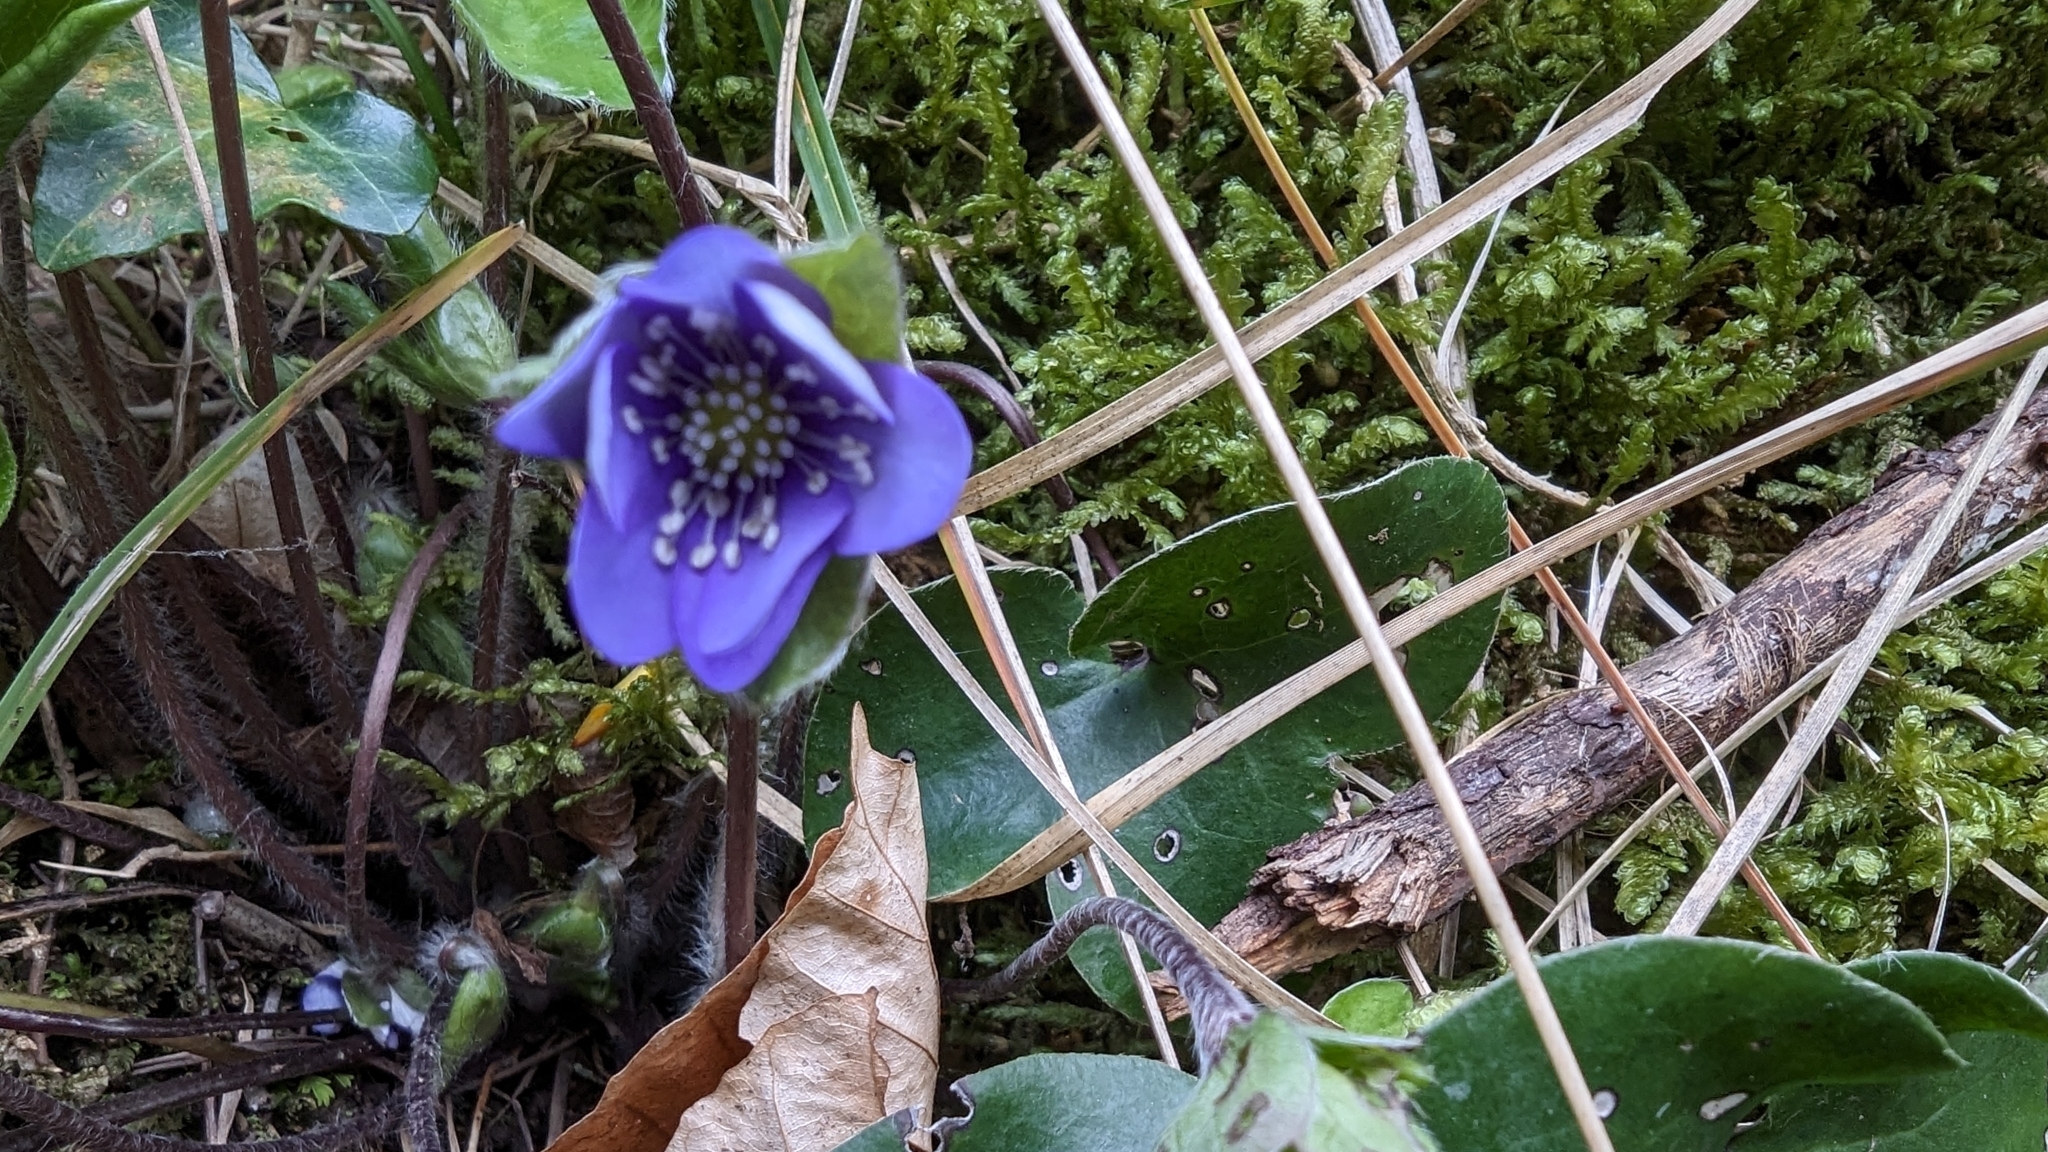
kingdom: Plantae
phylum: Tracheophyta
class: Magnoliopsida
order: Ranunculales
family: Ranunculaceae
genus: Hepatica
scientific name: Hepatica nobilis
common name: Liverleaf
